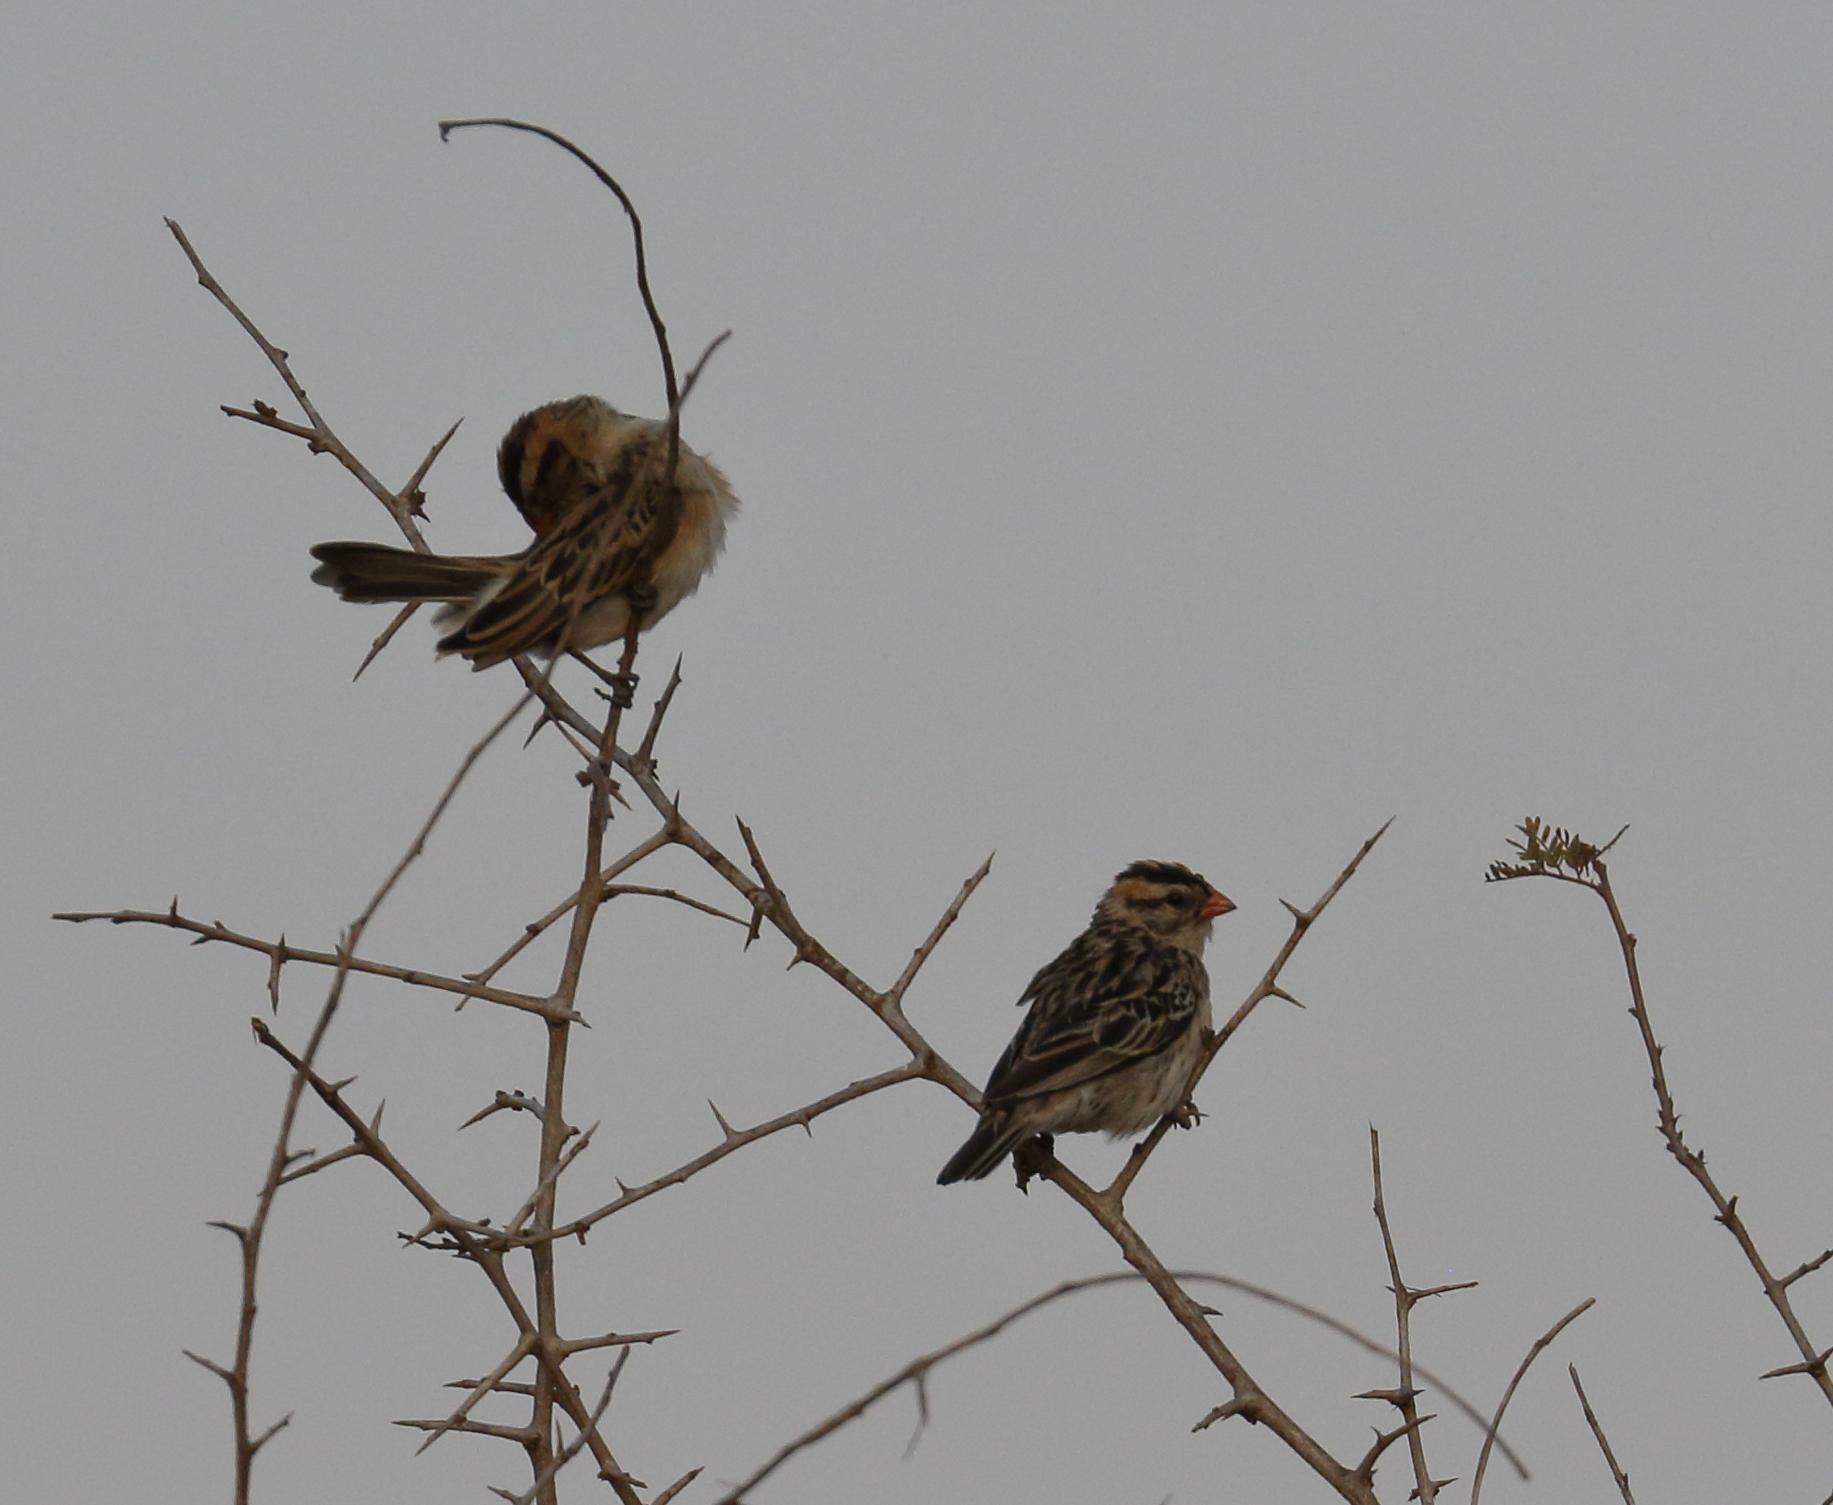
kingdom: Animalia
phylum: Chordata
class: Aves
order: Passeriformes
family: Viduidae
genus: Vidua
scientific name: Vidua macroura
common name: Pin-tailed whydah
